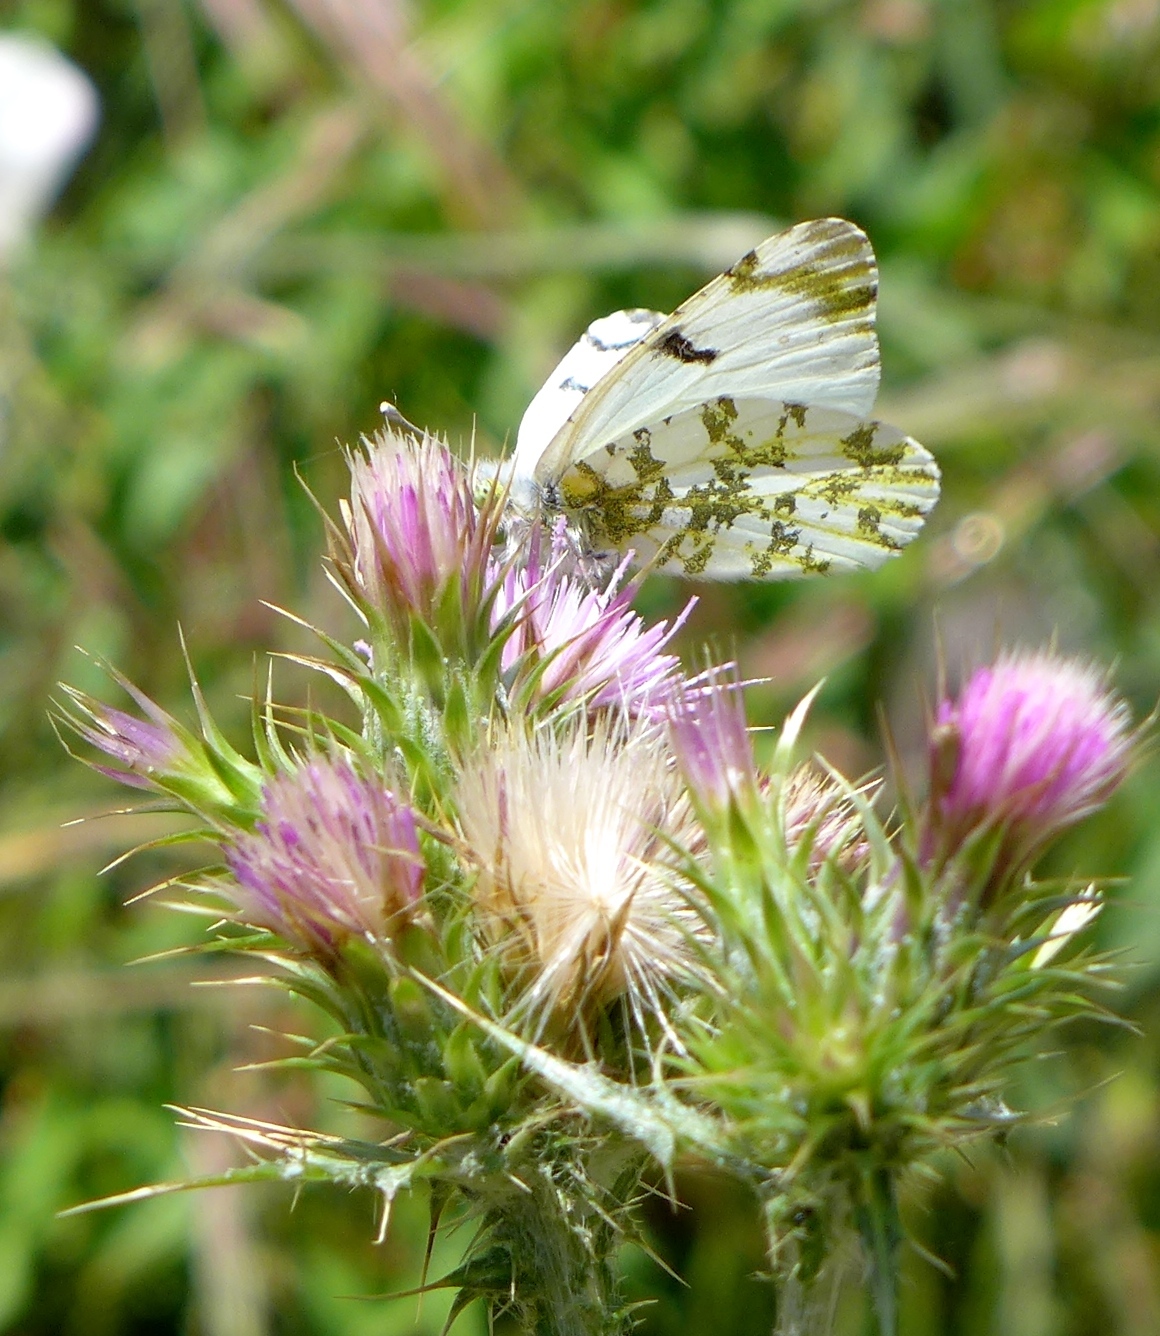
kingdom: Animalia
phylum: Arthropoda
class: Insecta
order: Lepidoptera
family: Pieridae
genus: Euchloe
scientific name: Euchloe ausonides
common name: Creamy marblewing
